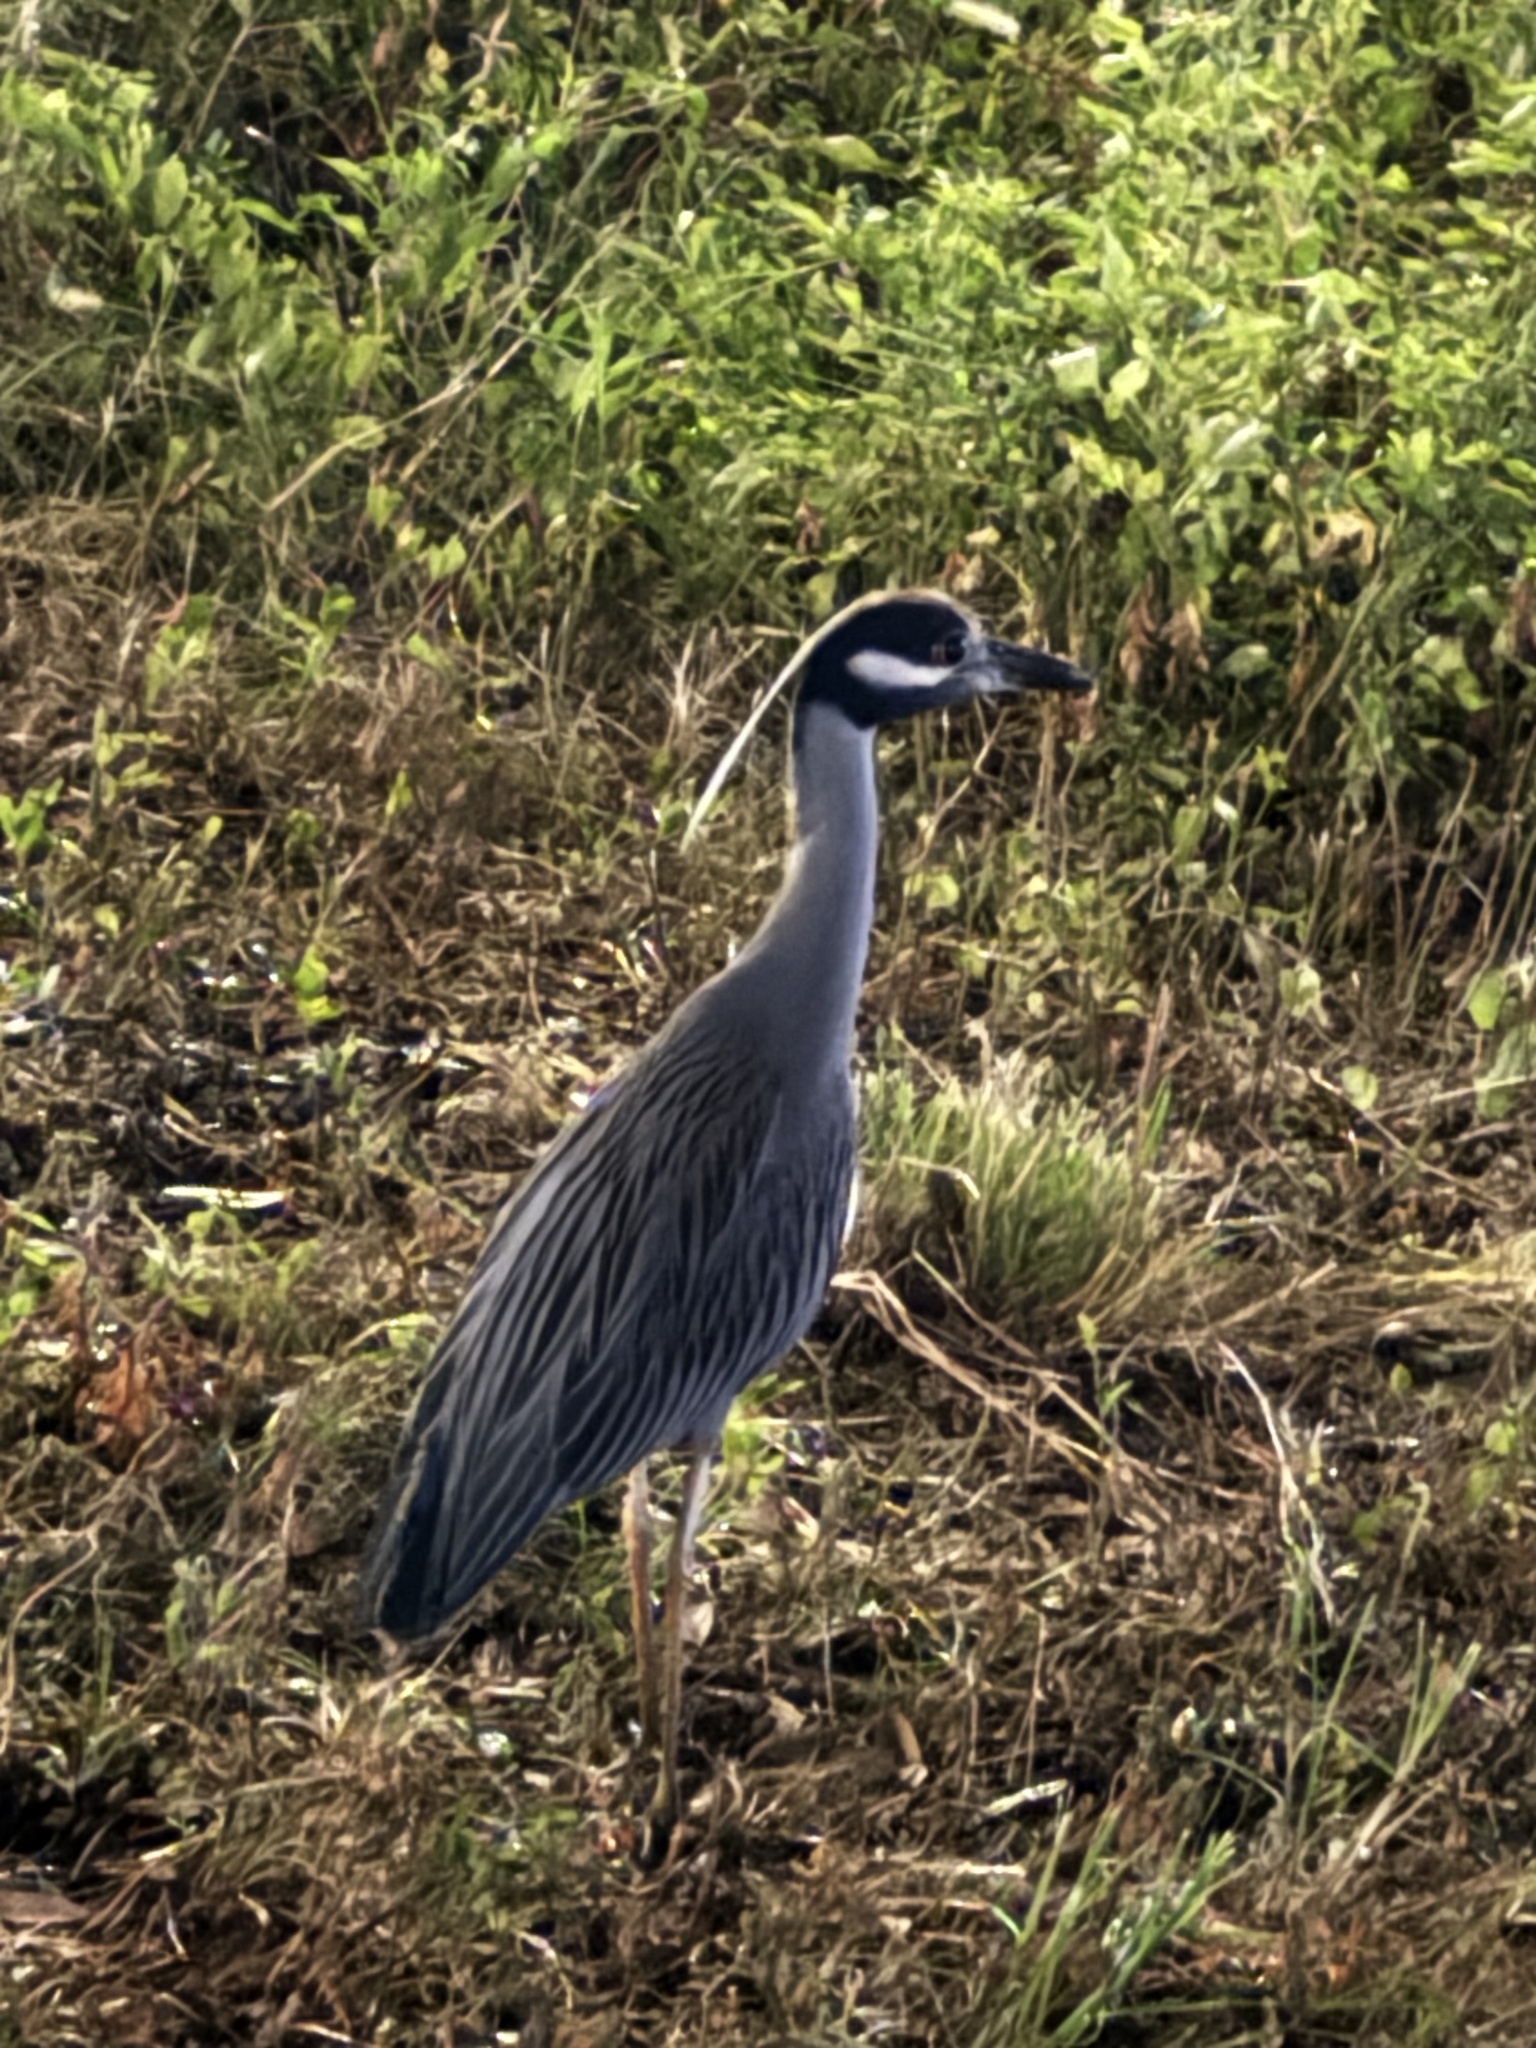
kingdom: Animalia
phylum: Chordata
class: Aves
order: Pelecaniformes
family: Ardeidae
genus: Nyctanassa
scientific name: Nyctanassa violacea
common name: Yellow-crowned night heron
